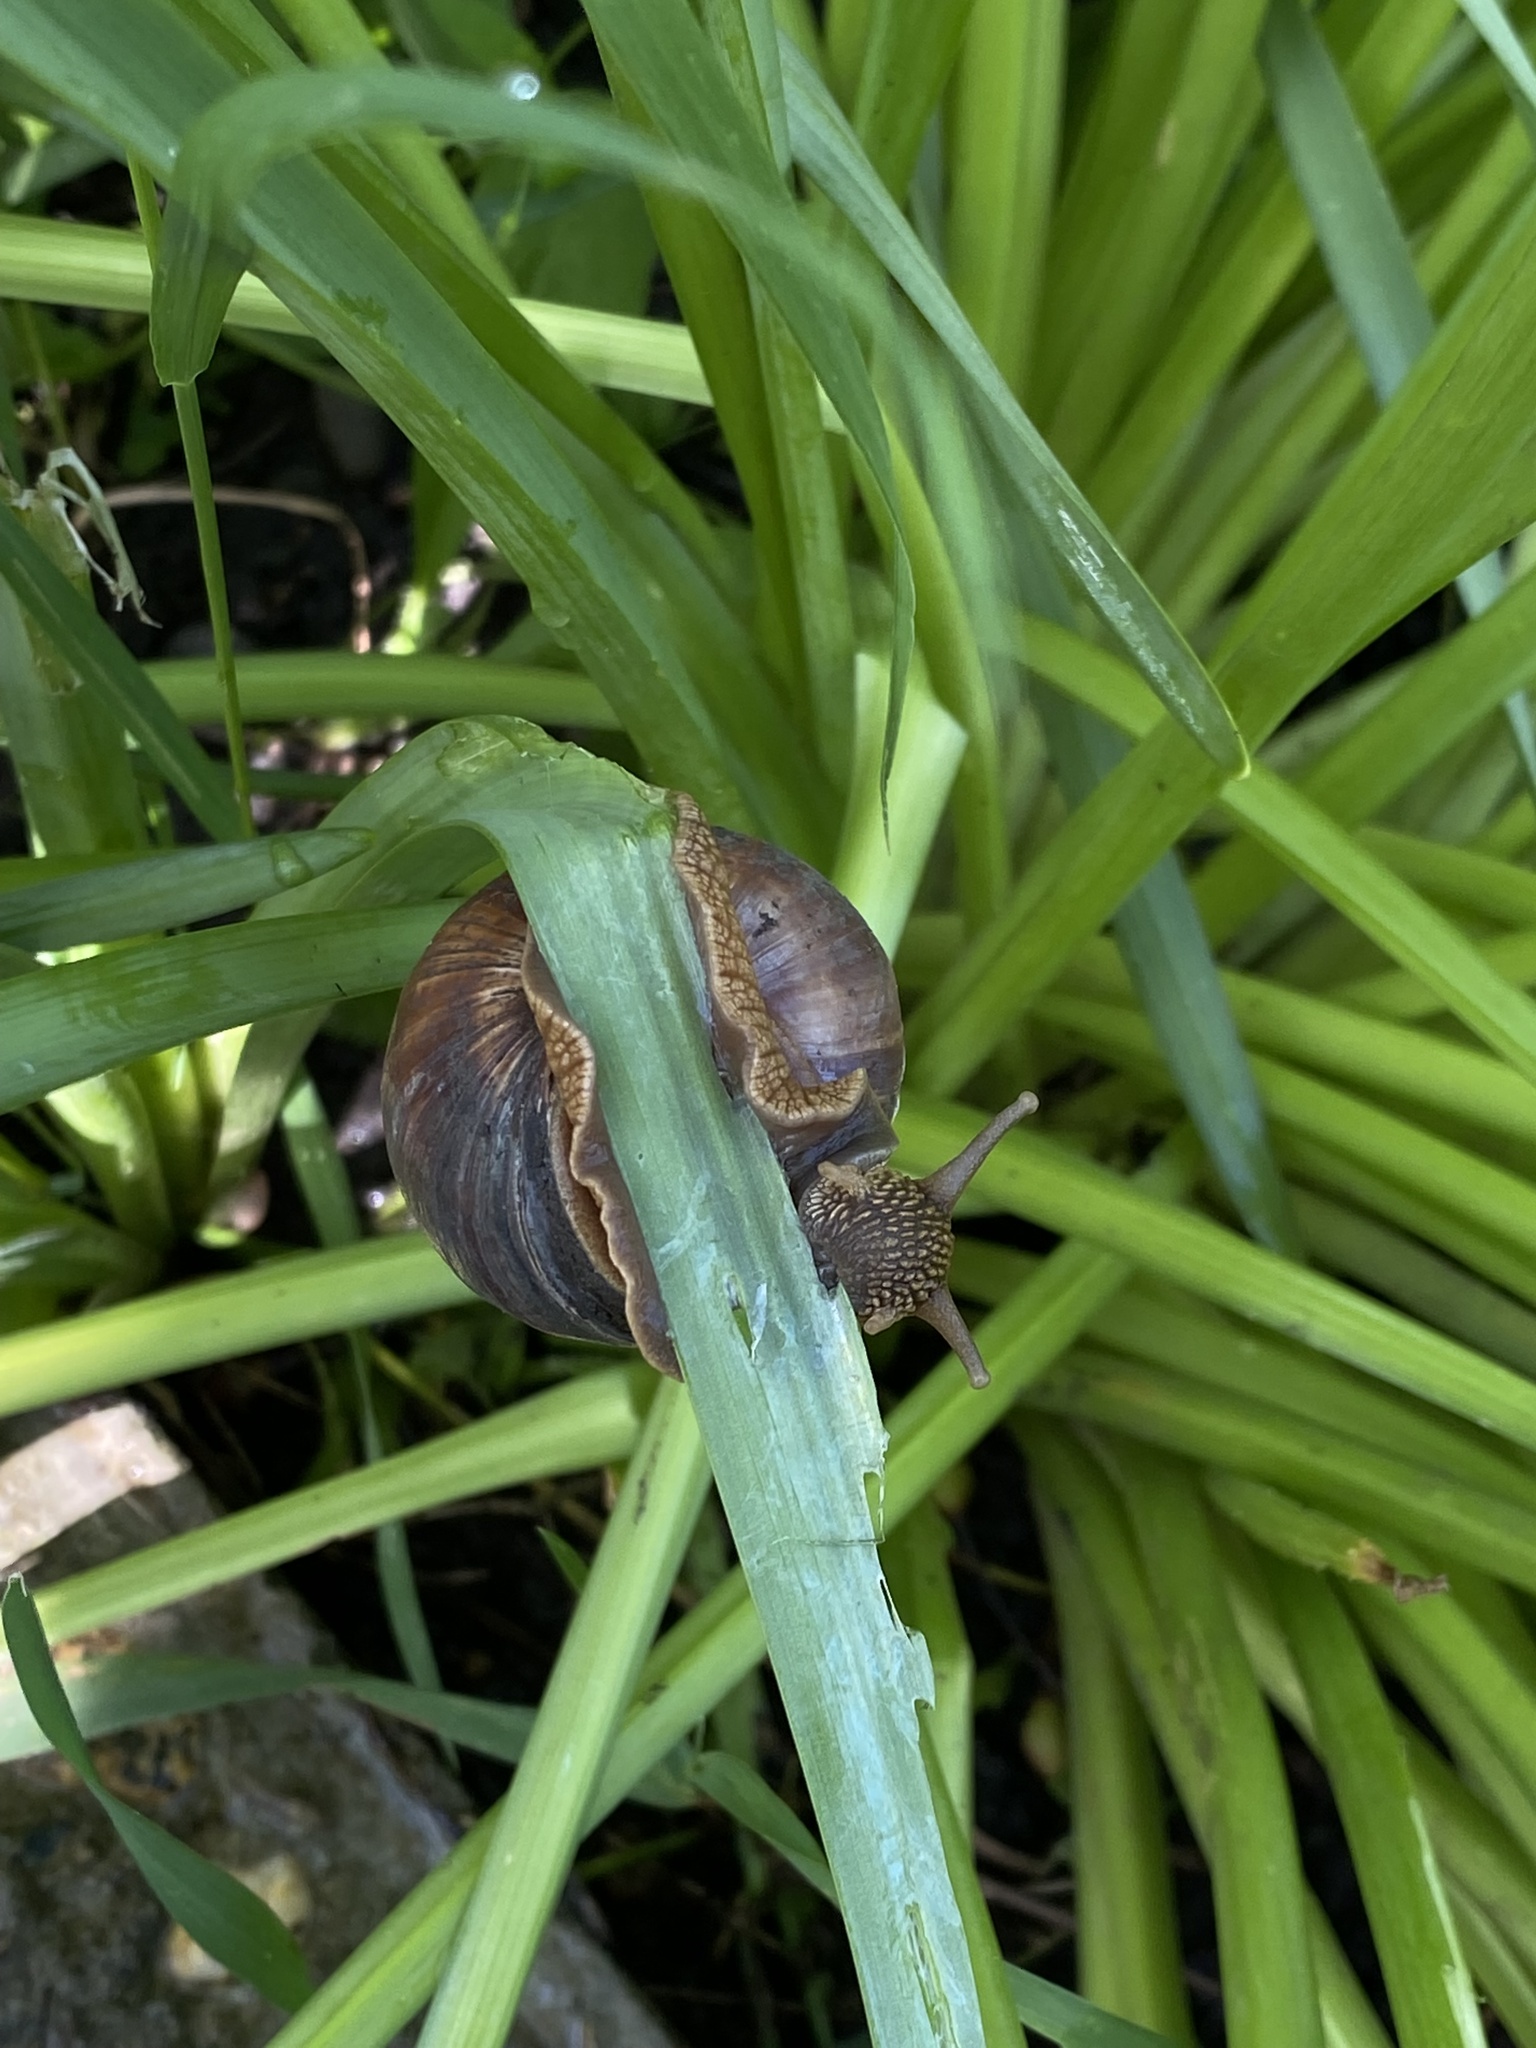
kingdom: Animalia
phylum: Mollusca
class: Gastropoda
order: Stylommatophora
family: Helicidae
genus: Helix
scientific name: Helix lucorum
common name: Turkish snail
